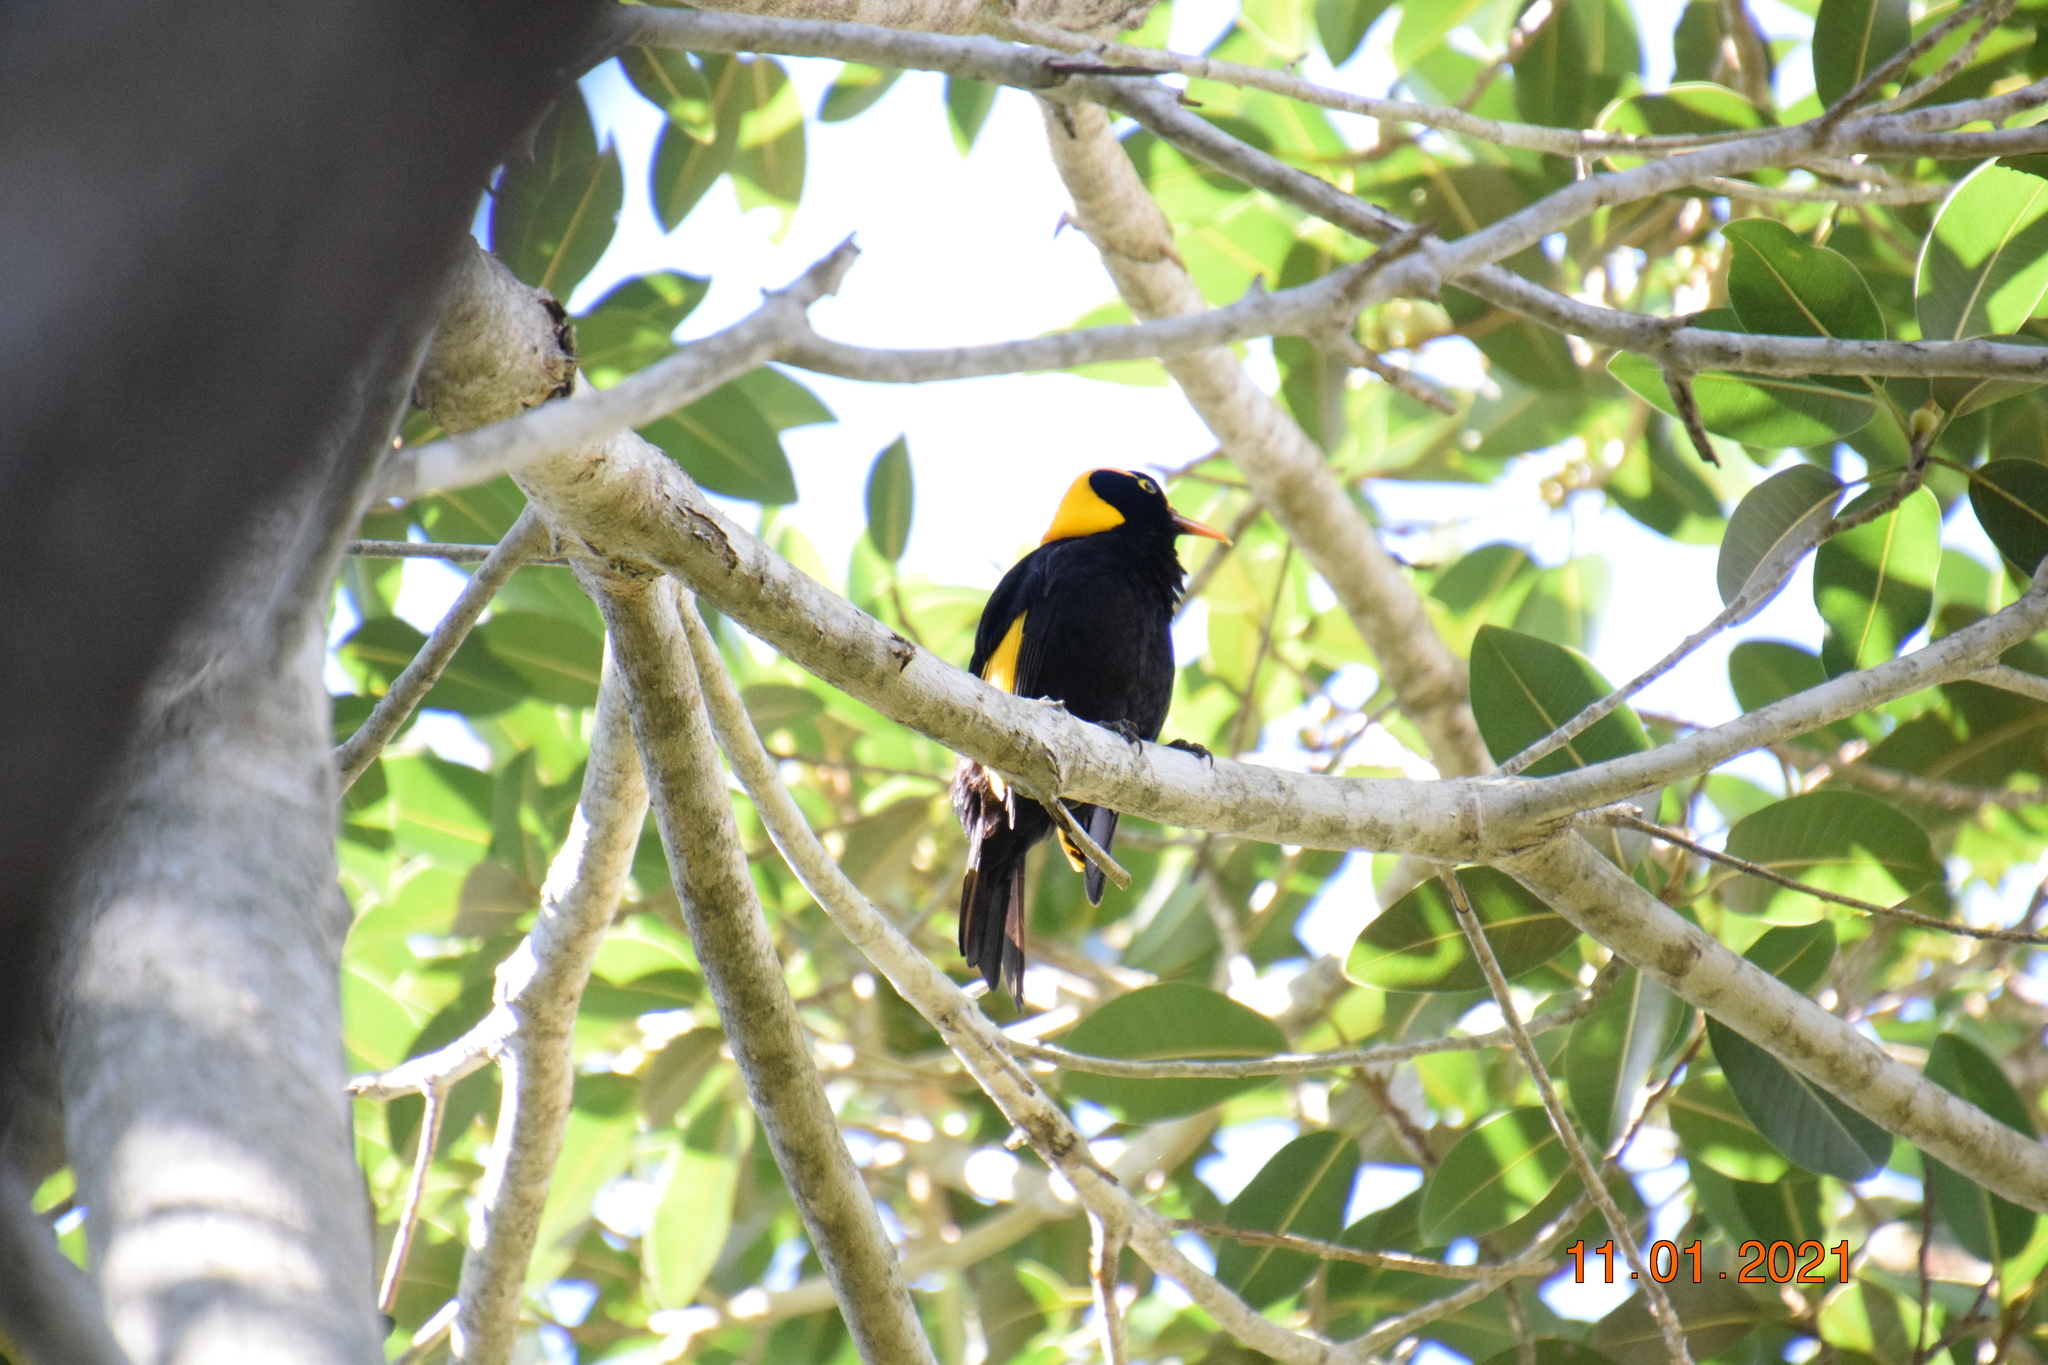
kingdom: Animalia
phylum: Chordata
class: Aves
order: Passeriformes
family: Ptilonorhynchidae
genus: Sericulus
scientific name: Sericulus chrysocephalus
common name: Regent bowerbird
